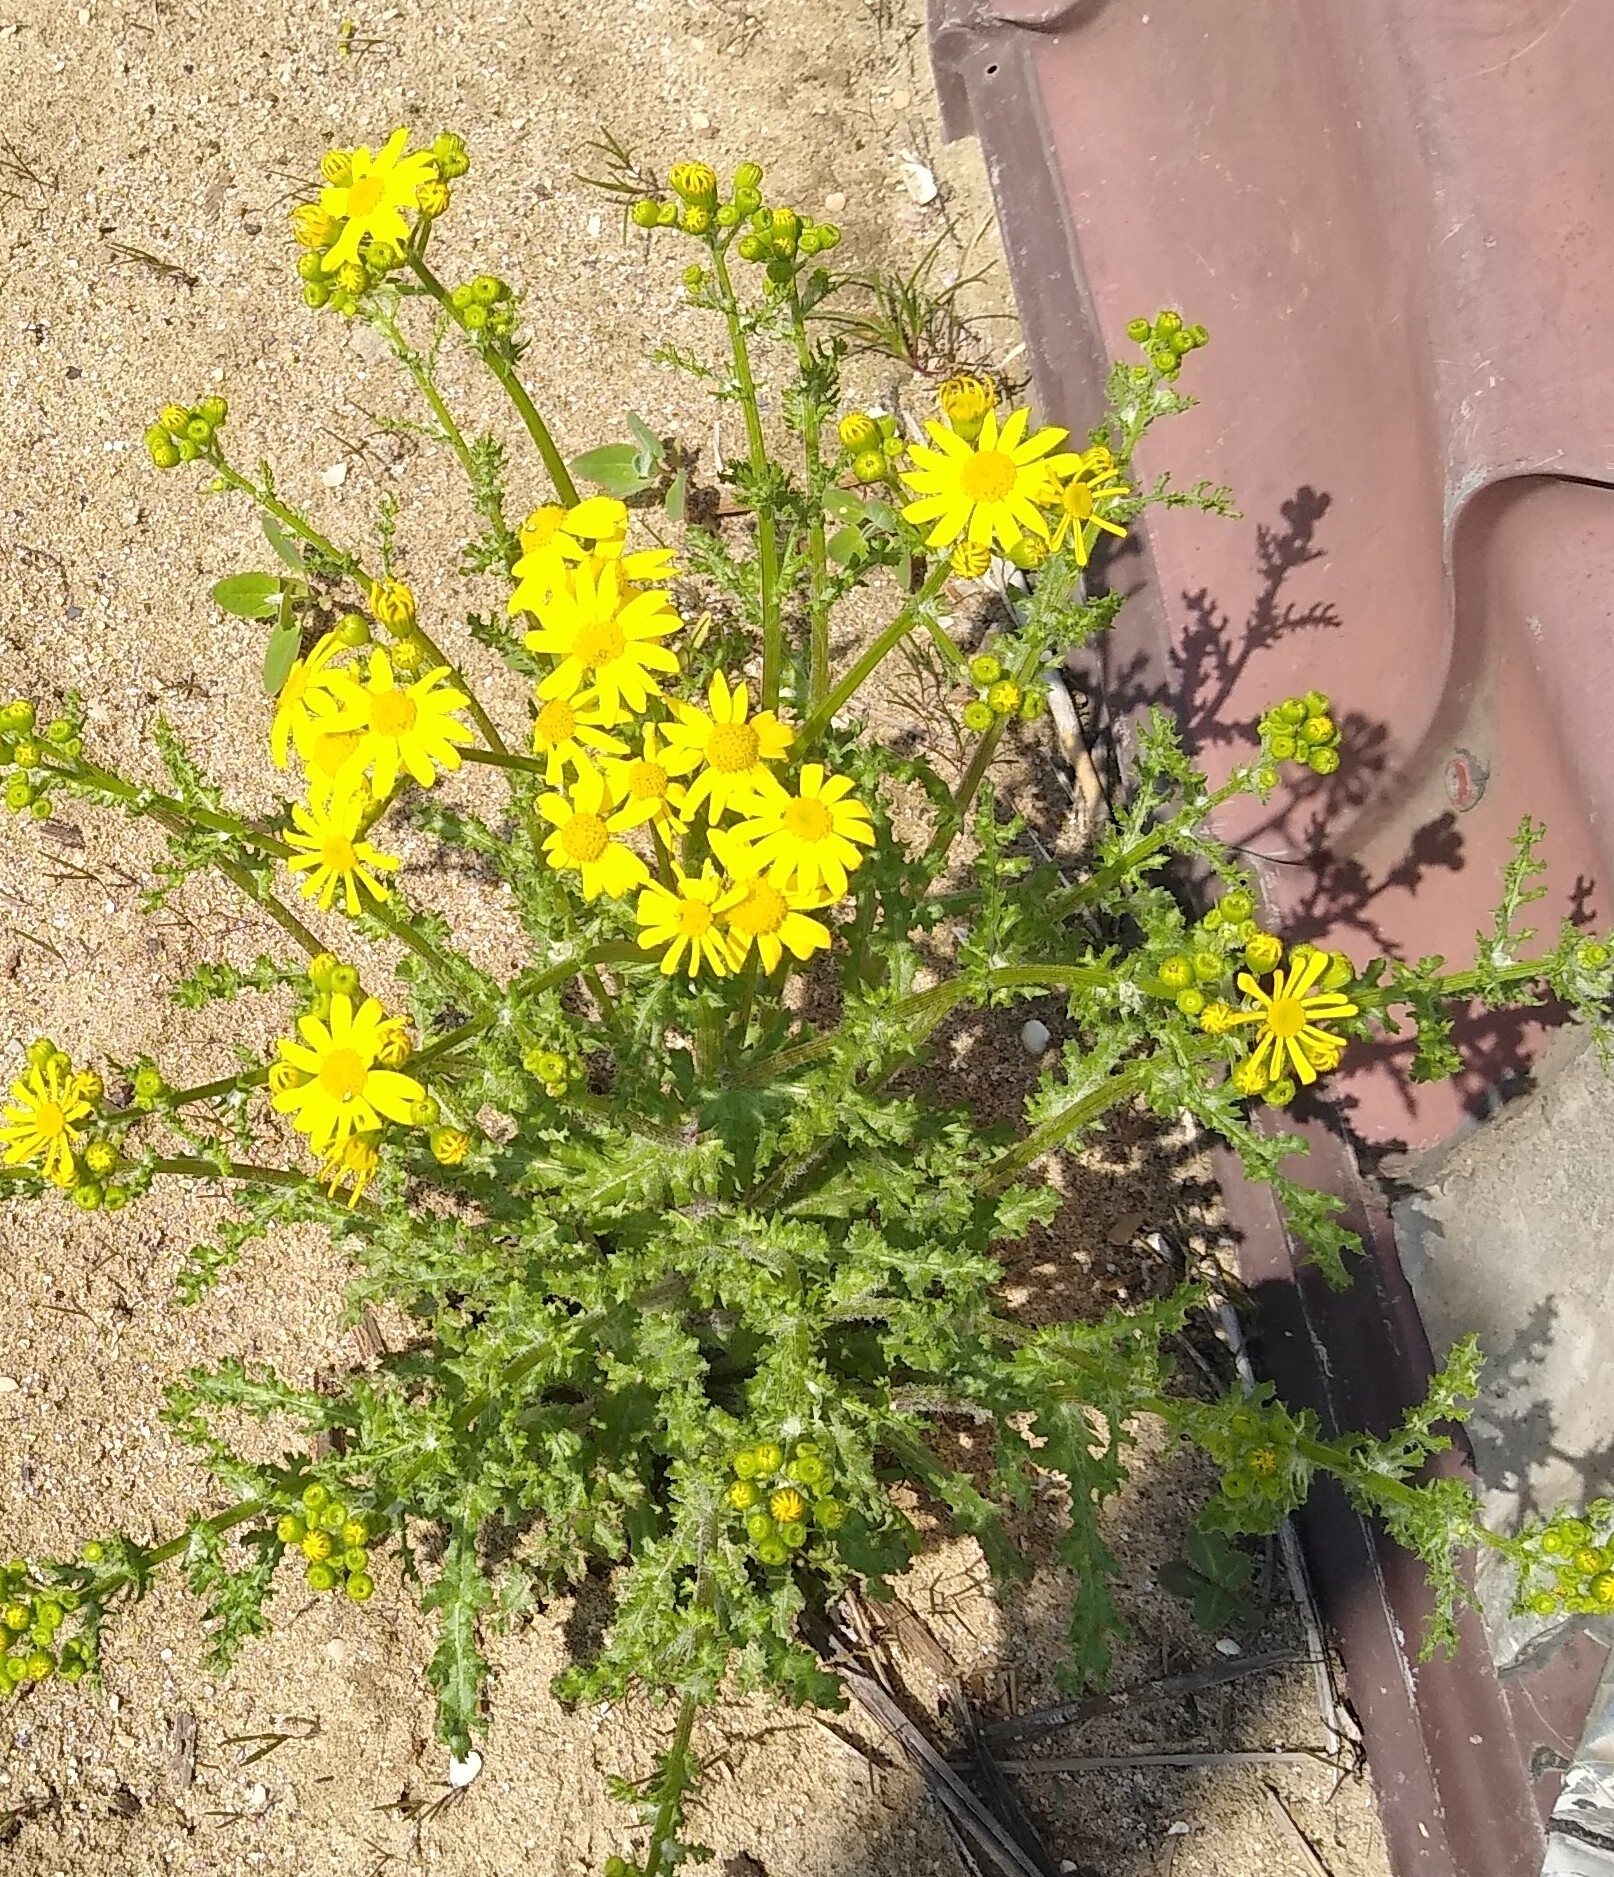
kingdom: Plantae
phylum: Tracheophyta
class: Magnoliopsida
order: Asterales
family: Asteraceae
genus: Senecio
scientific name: Senecio vernalis
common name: Eastern groundsel
